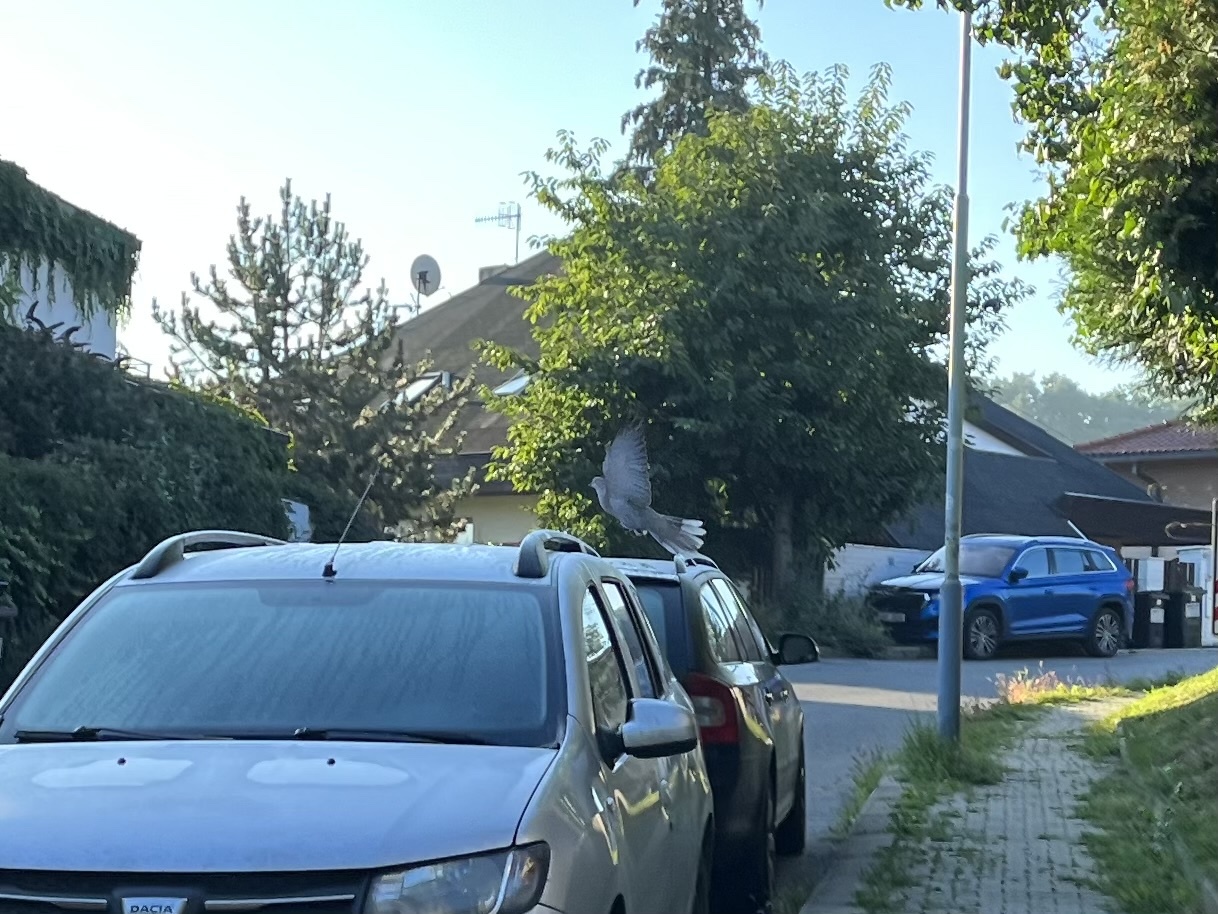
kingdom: Animalia
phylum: Chordata
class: Aves
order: Columbiformes
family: Columbidae
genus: Streptopelia
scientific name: Streptopelia decaocto
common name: Eurasian collared dove
